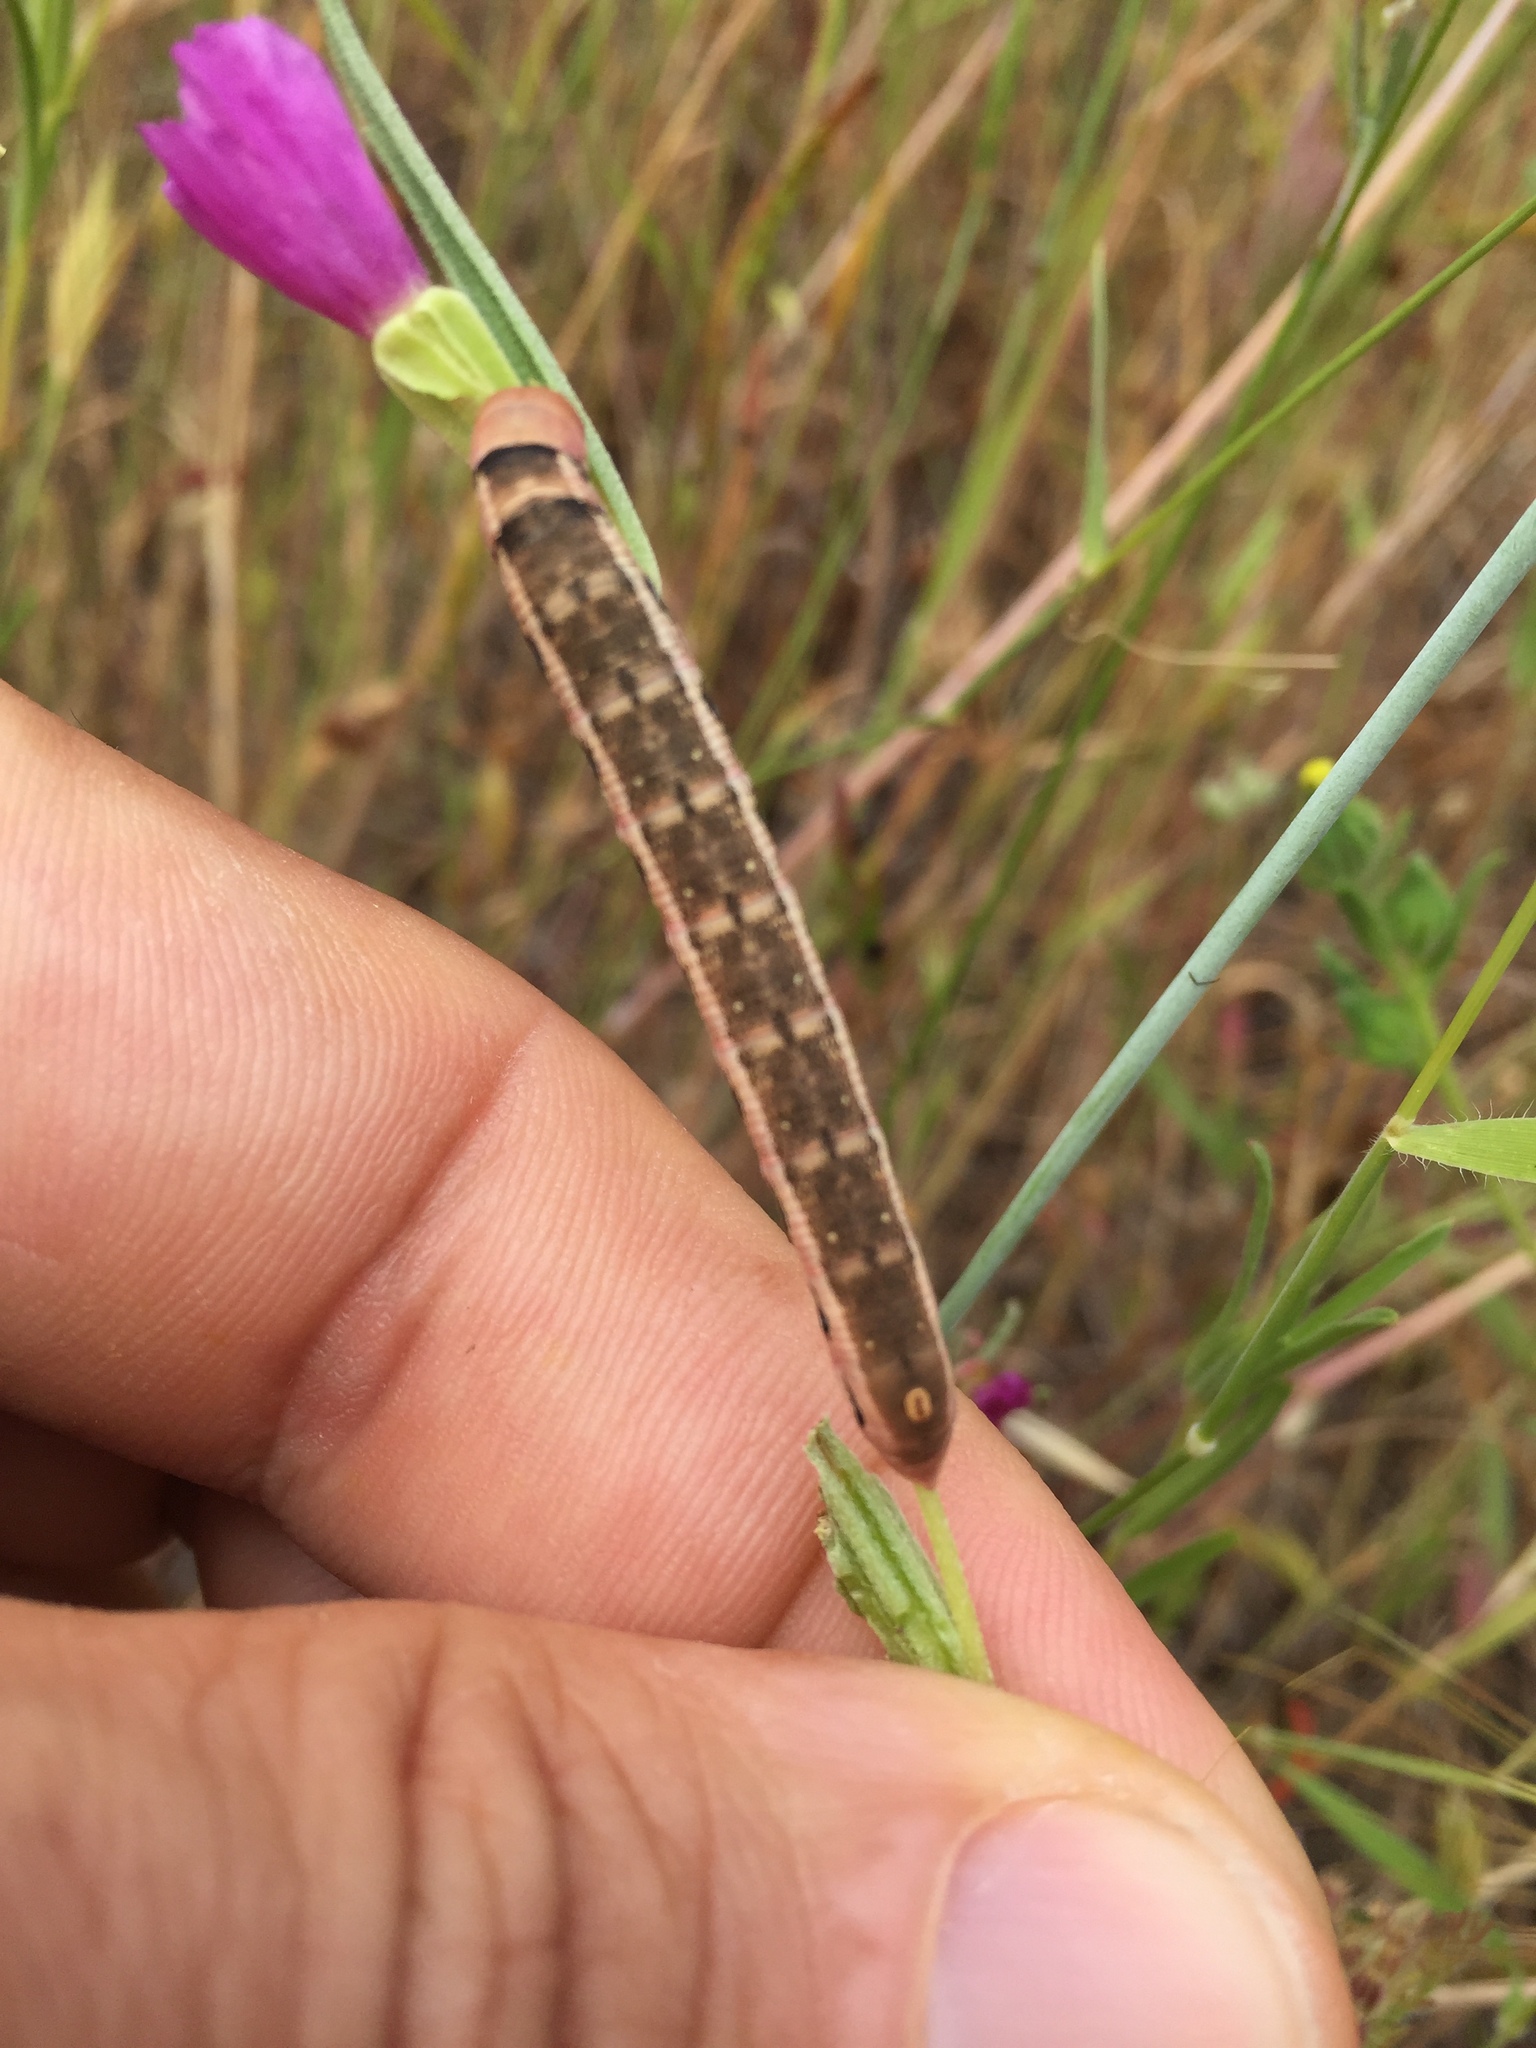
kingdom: Animalia
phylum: Arthropoda
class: Insecta
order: Lepidoptera
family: Sphingidae
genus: Proserpinus
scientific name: Proserpinus clarkiae
